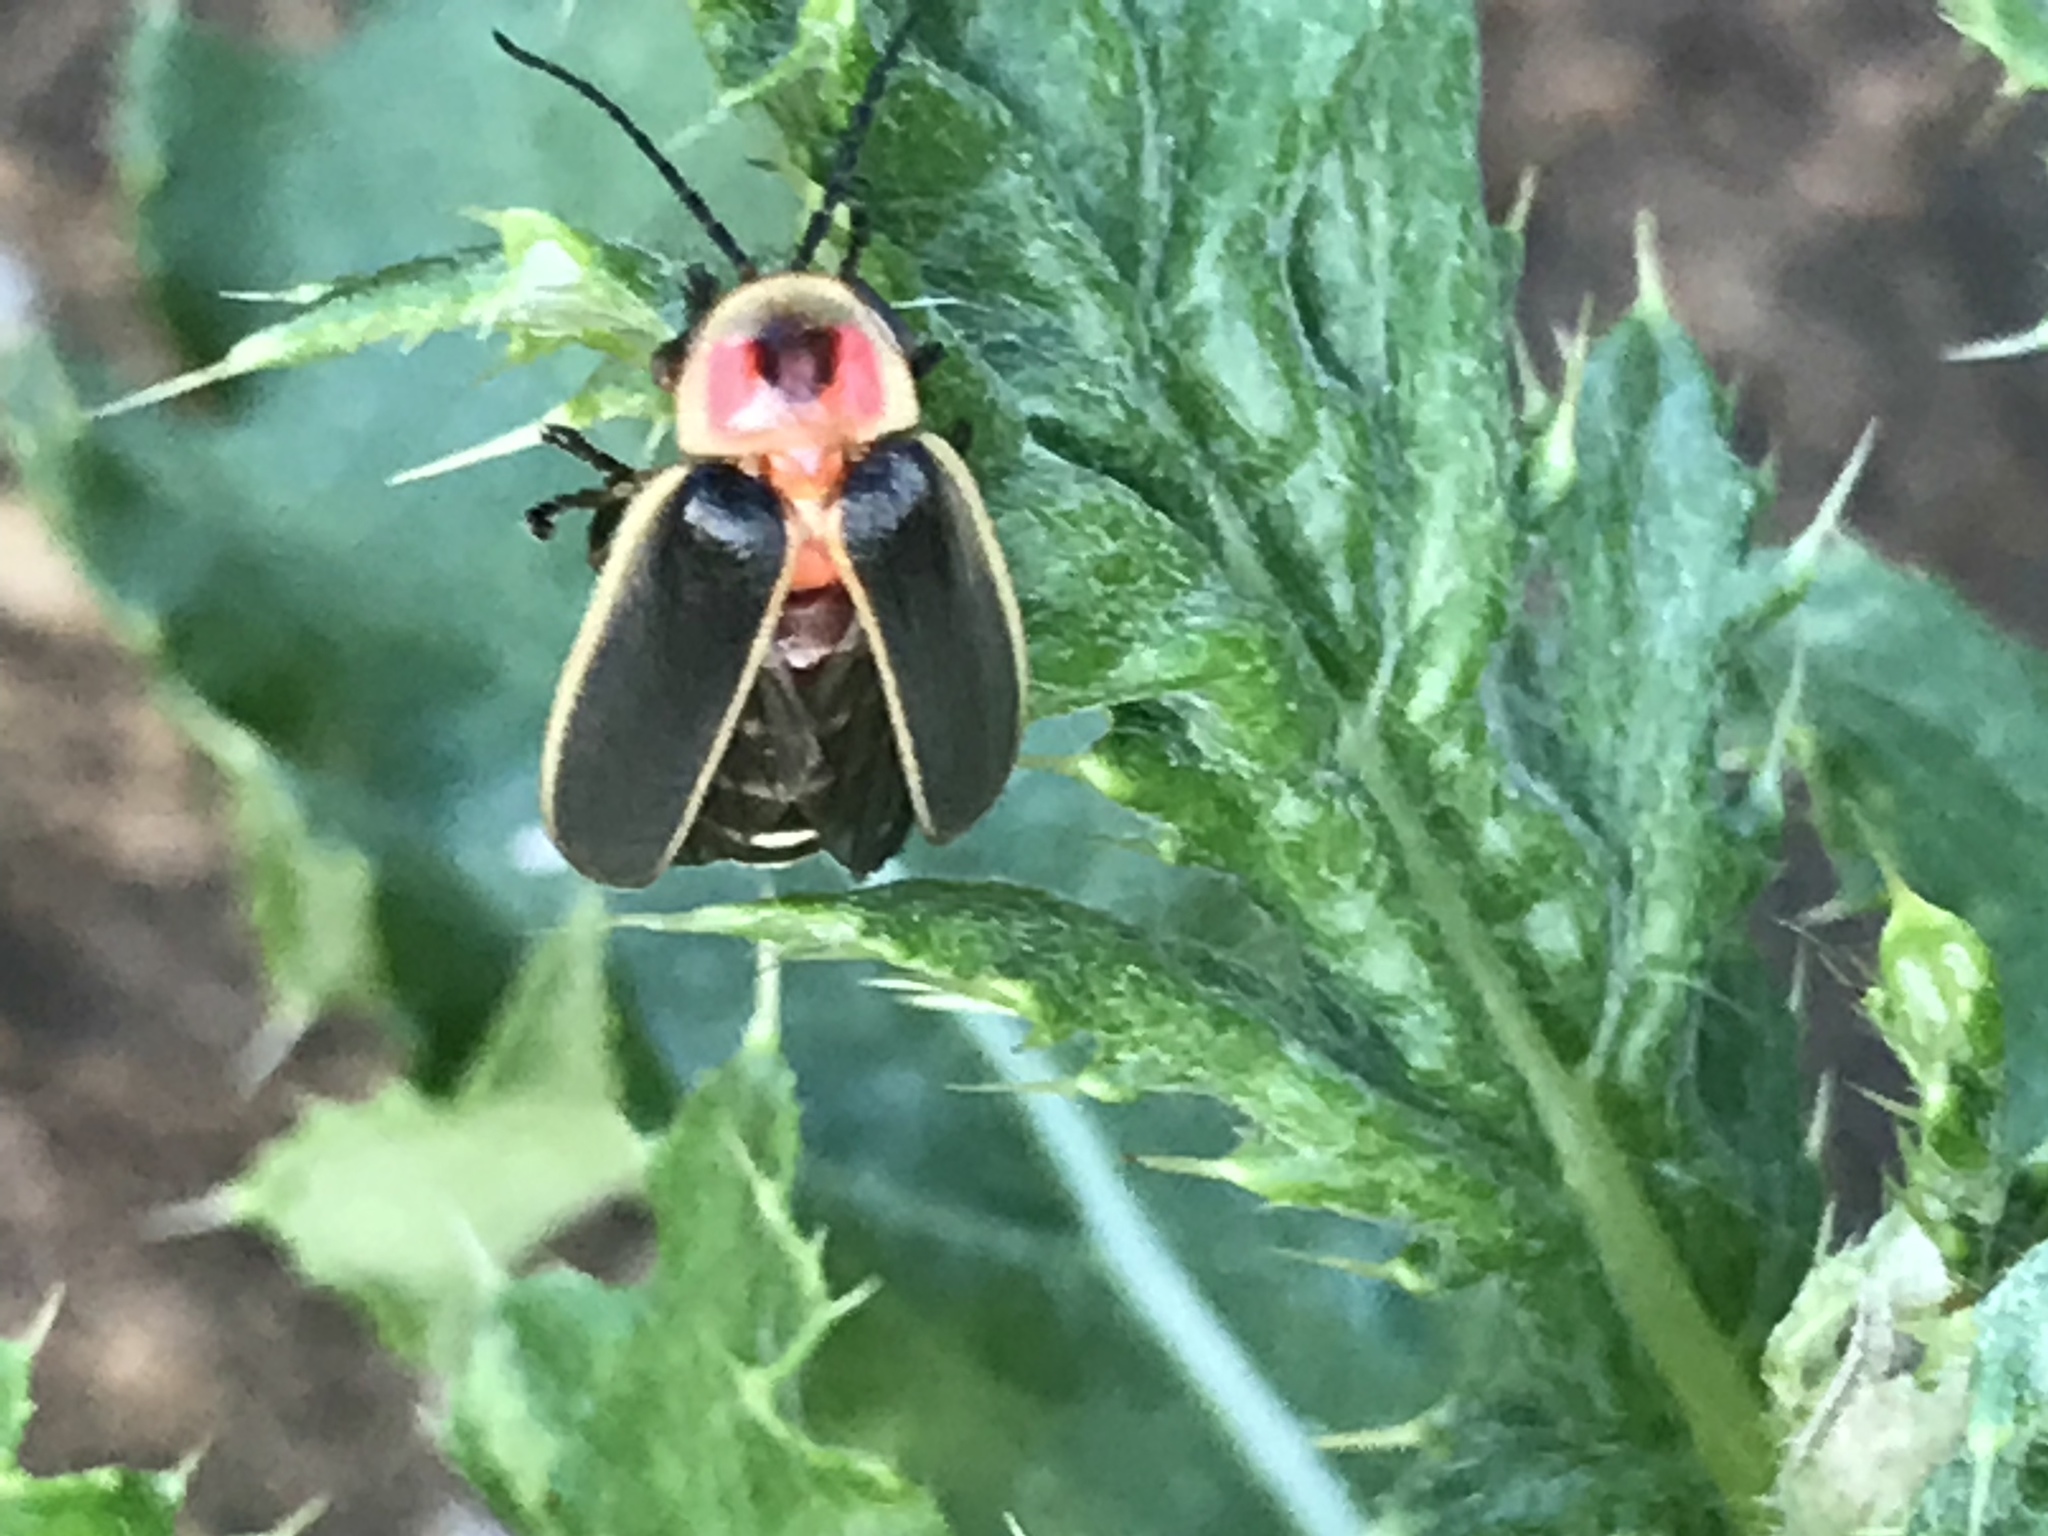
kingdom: Animalia
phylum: Arthropoda
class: Insecta
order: Coleoptera
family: Lampyridae
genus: Photinus
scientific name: Photinus pyralis
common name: Big dipper firefly
